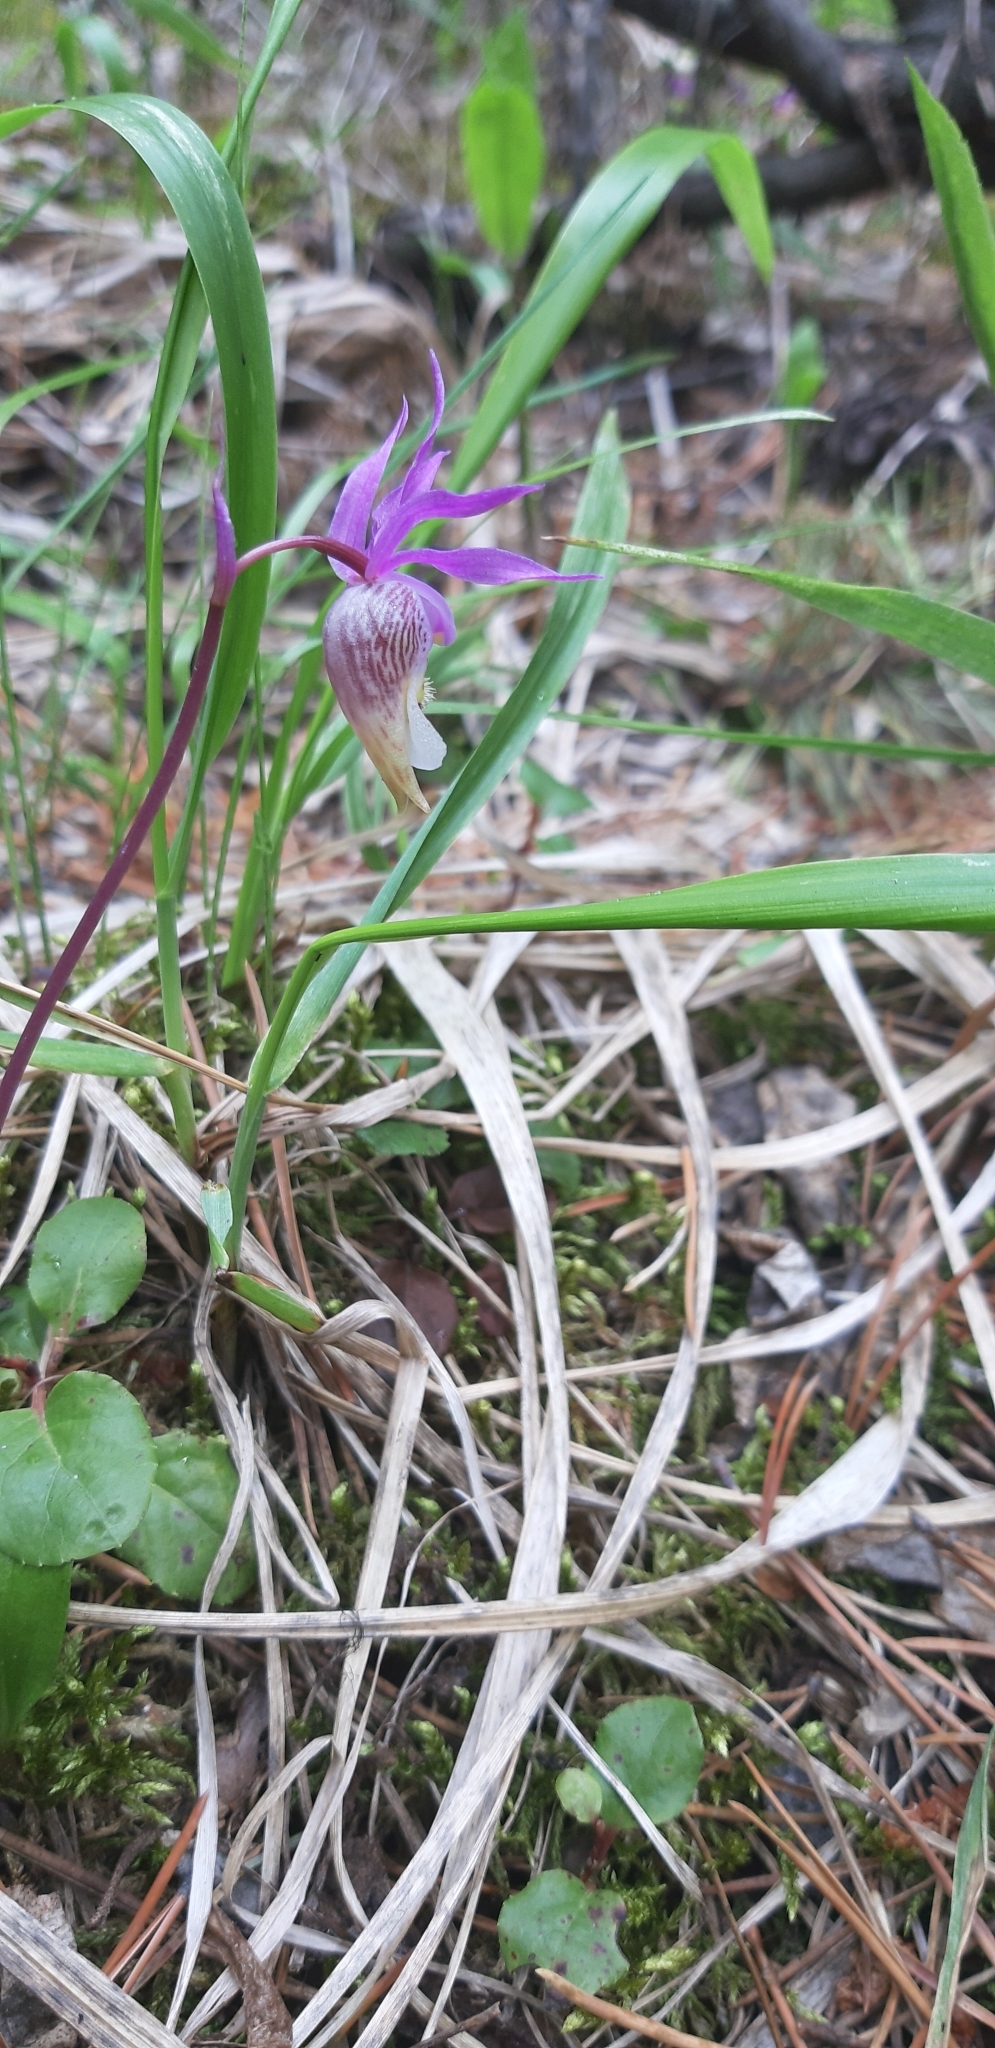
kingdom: Plantae
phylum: Tracheophyta
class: Liliopsida
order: Asparagales
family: Orchidaceae
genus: Calypso
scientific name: Calypso bulbosa
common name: Calypso
